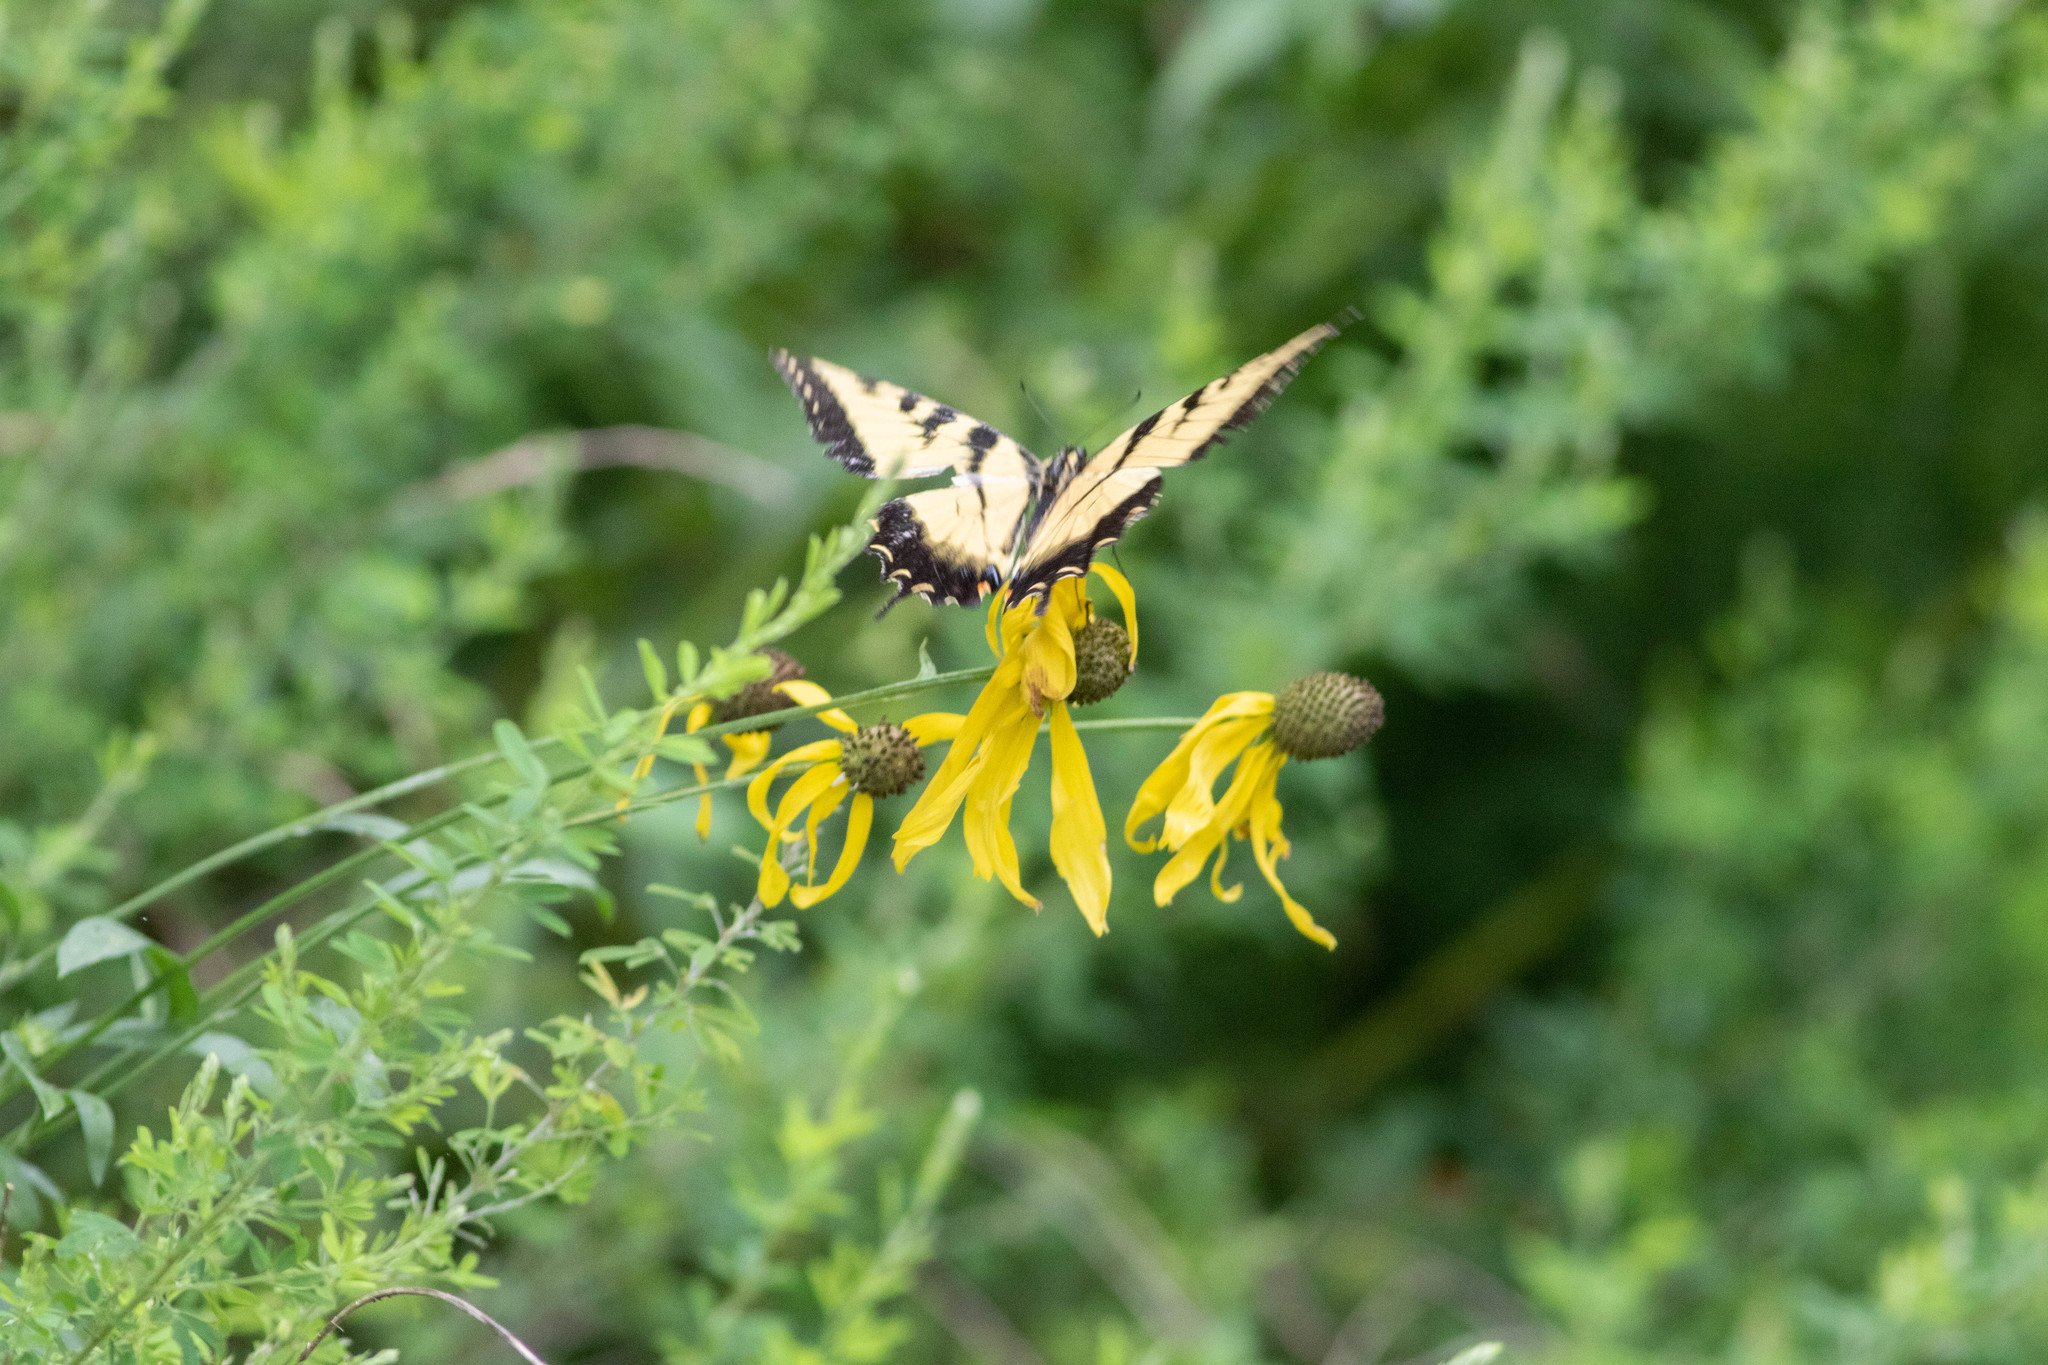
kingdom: Animalia
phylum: Arthropoda
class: Insecta
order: Lepidoptera
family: Papilionidae
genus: Papilio
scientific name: Papilio glaucus
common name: Tiger swallowtail
